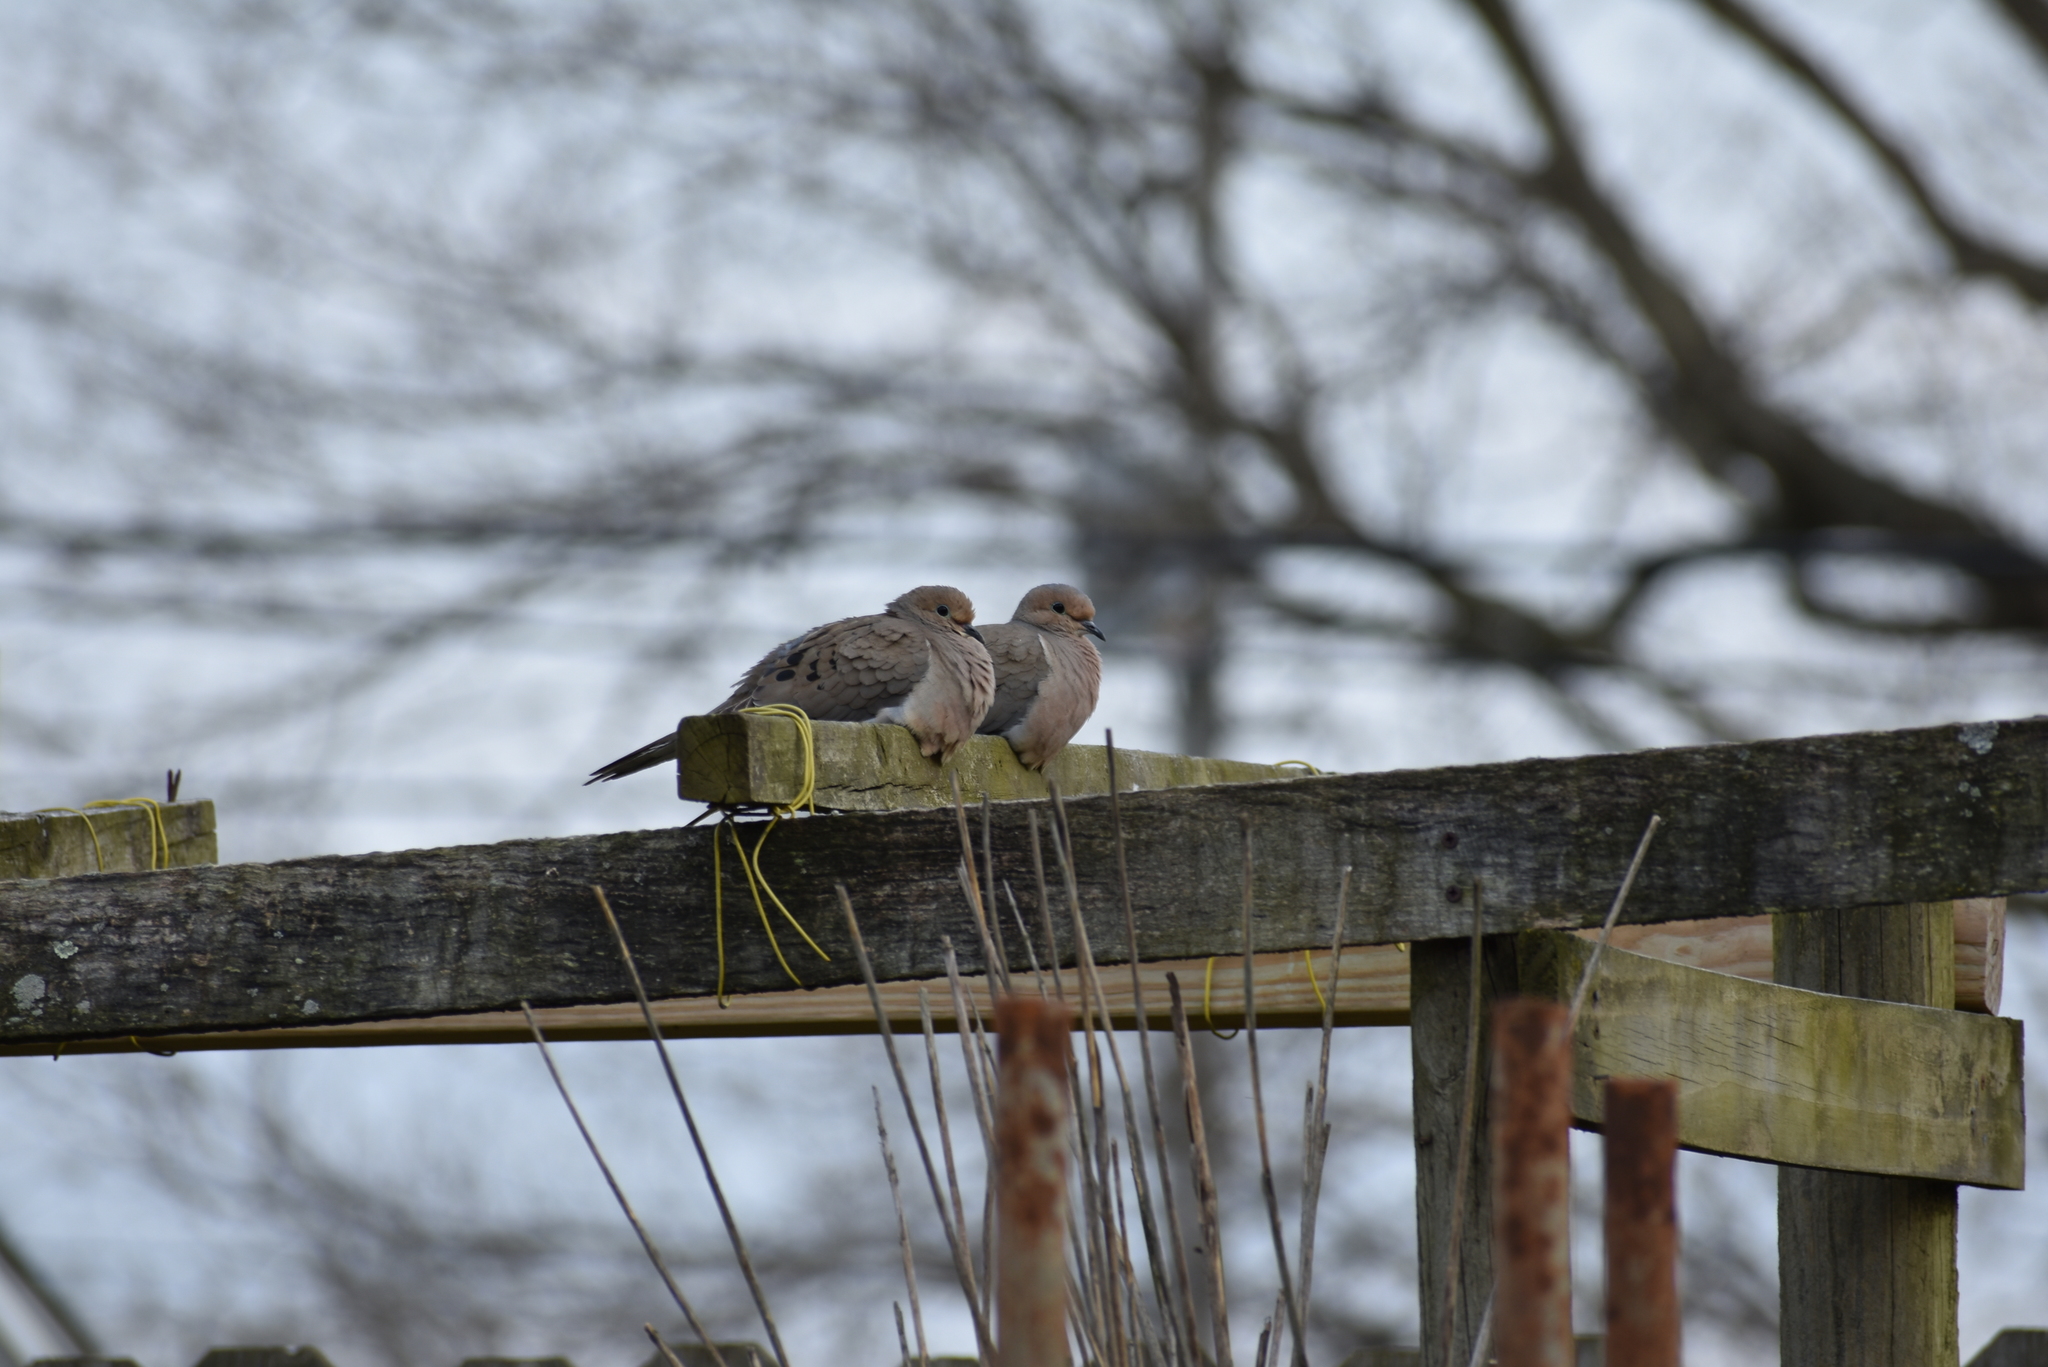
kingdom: Animalia
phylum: Chordata
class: Aves
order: Columbiformes
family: Columbidae
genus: Zenaida
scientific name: Zenaida macroura
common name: Mourning dove
